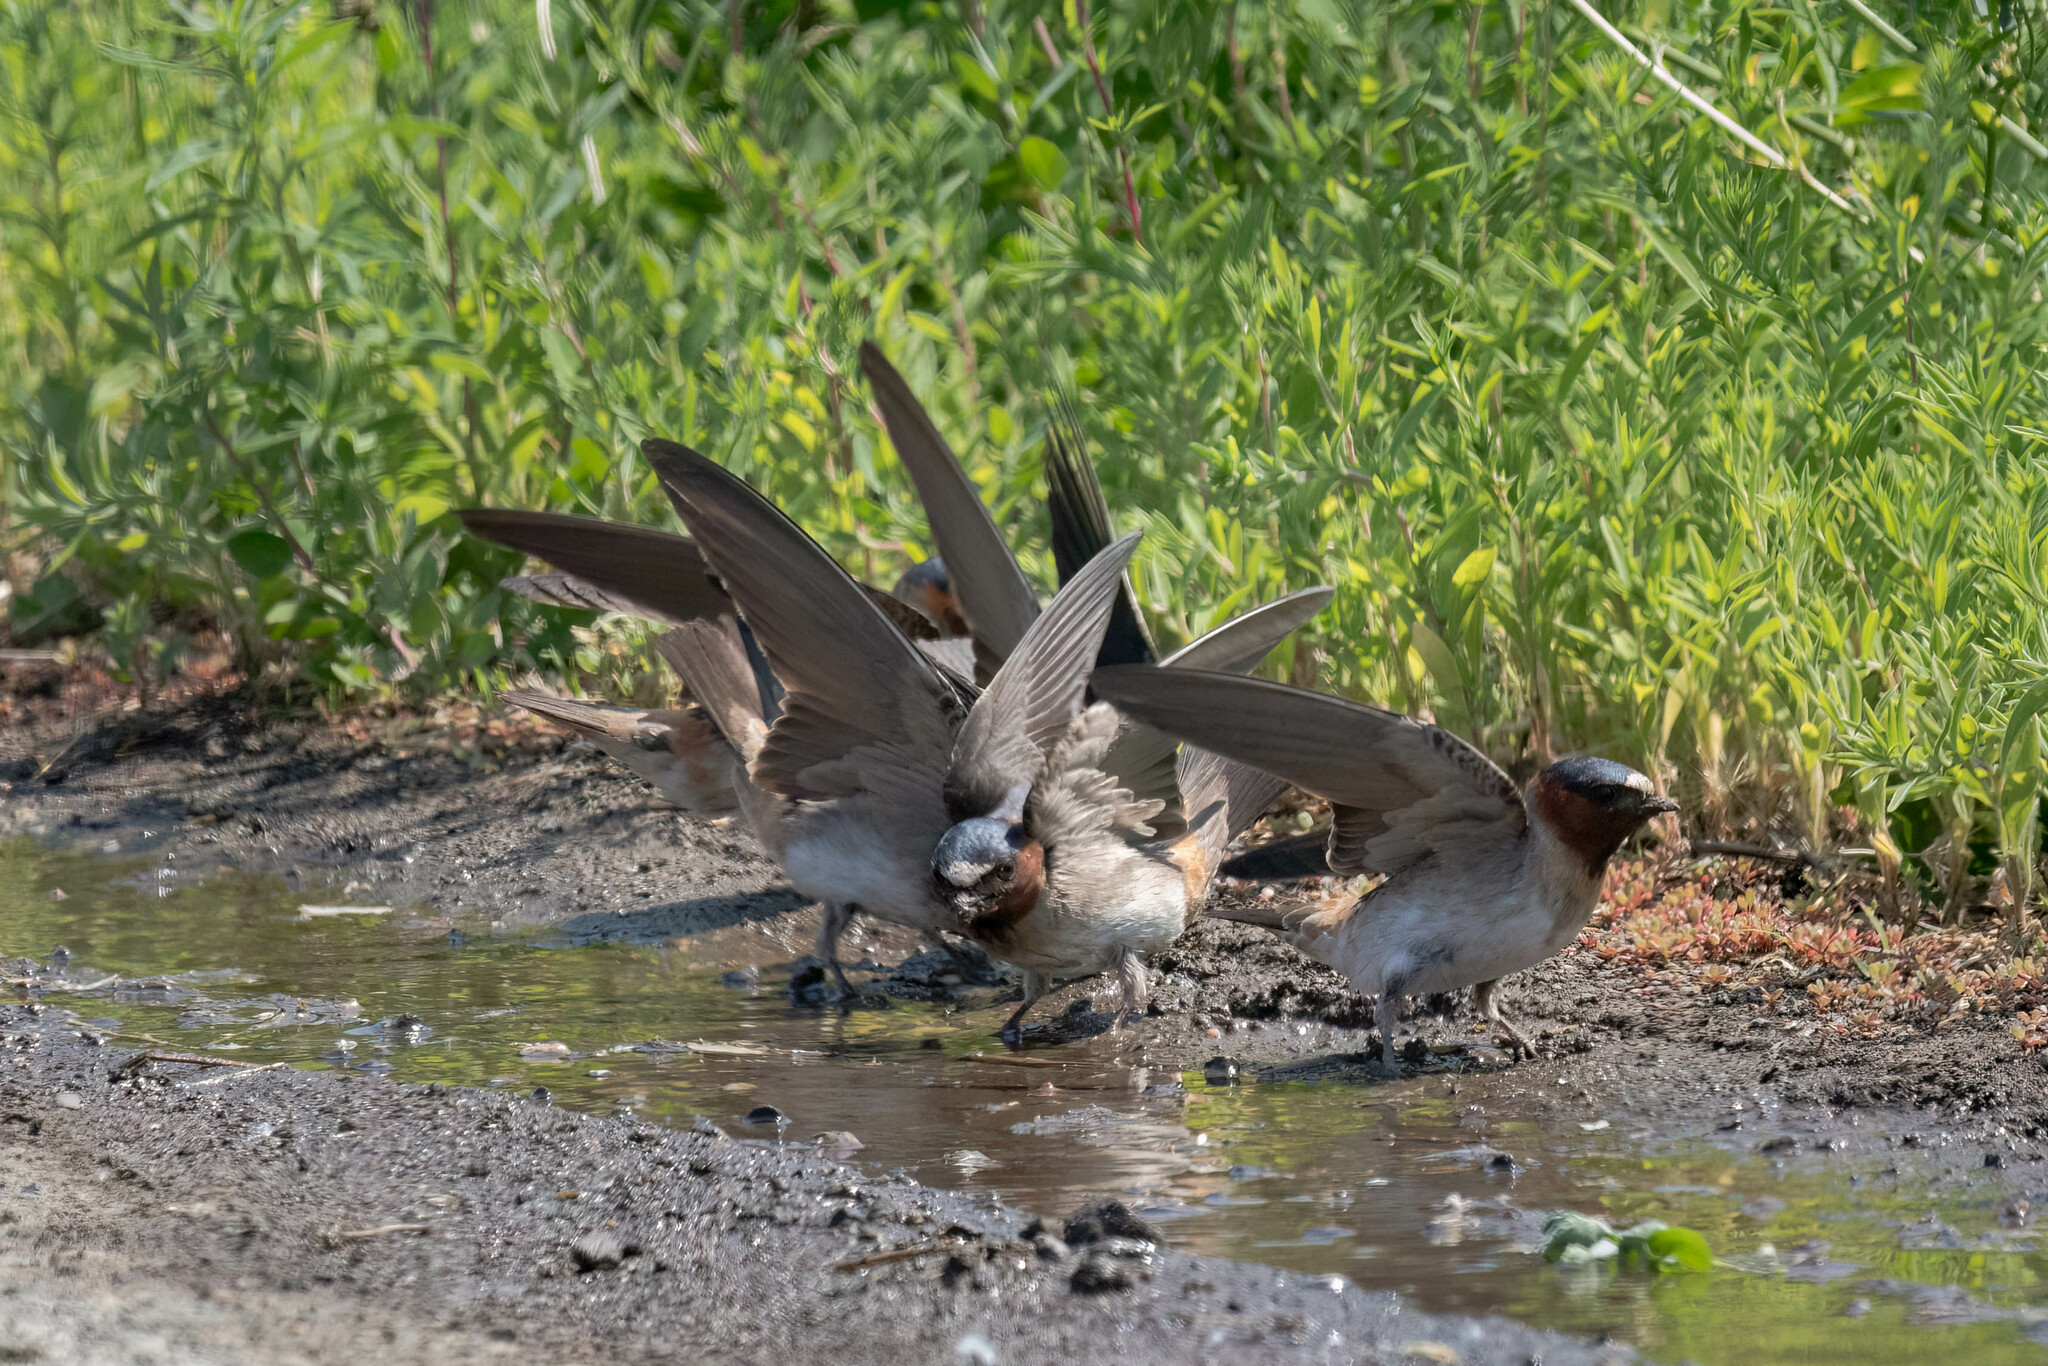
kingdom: Animalia
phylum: Chordata
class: Aves
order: Passeriformes
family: Hirundinidae
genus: Petrochelidon
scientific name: Petrochelidon pyrrhonota
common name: American cliff swallow
